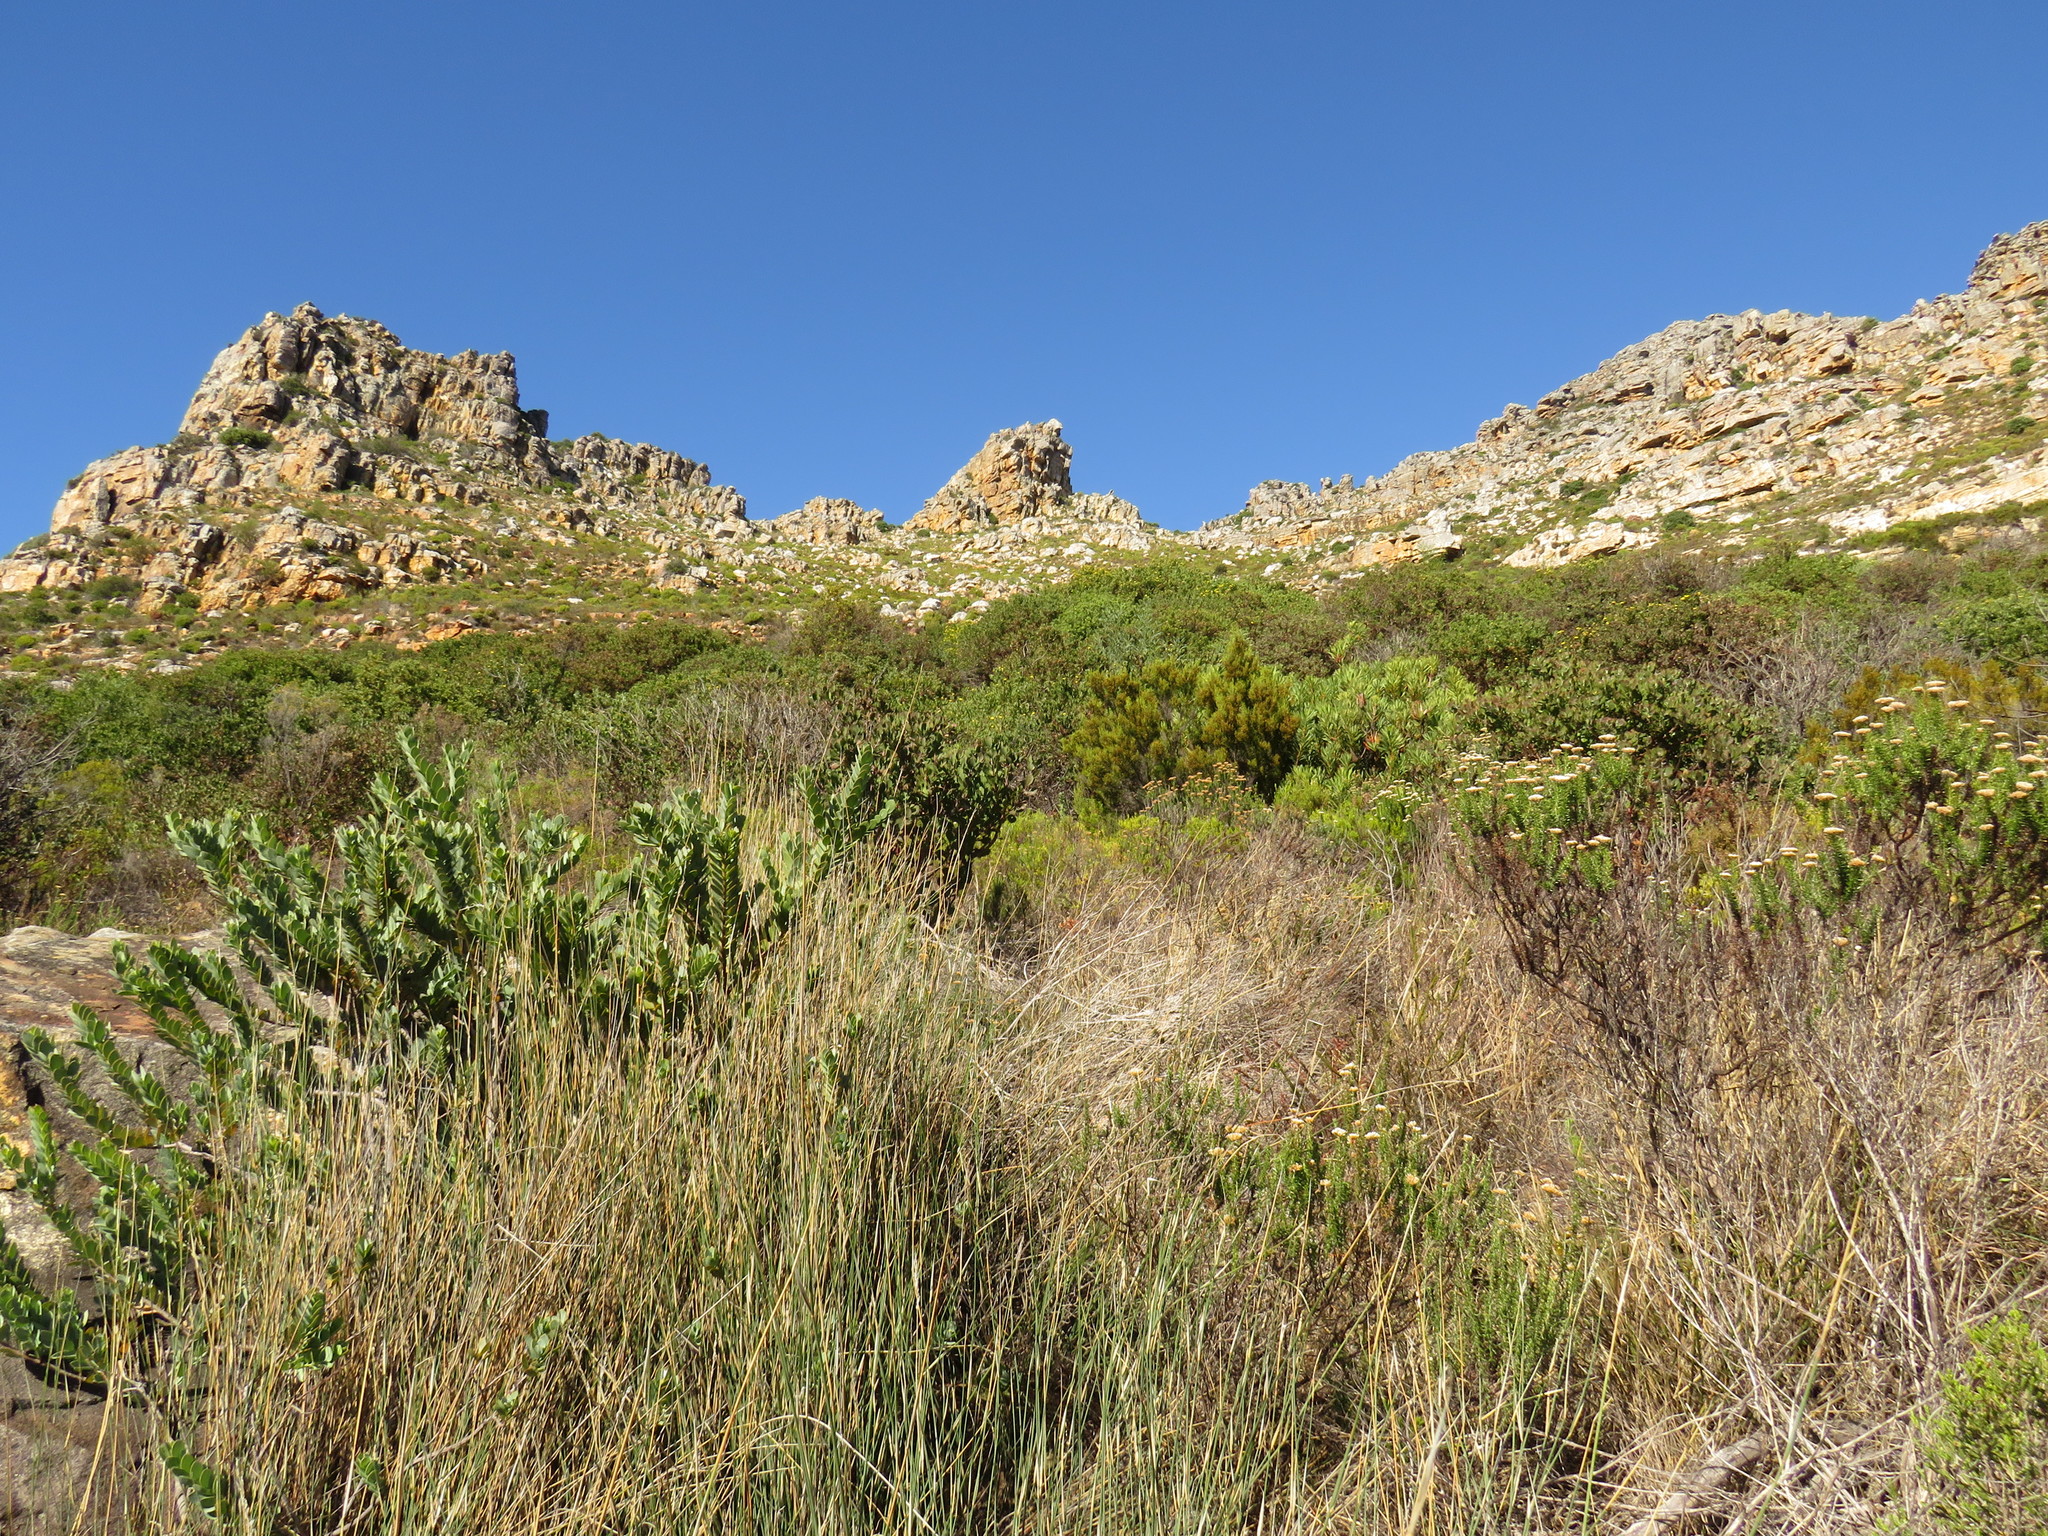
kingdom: Plantae
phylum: Tracheophyta
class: Magnoliopsida
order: Ericales
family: Ericaceae
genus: Erica
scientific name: Erica tristis
